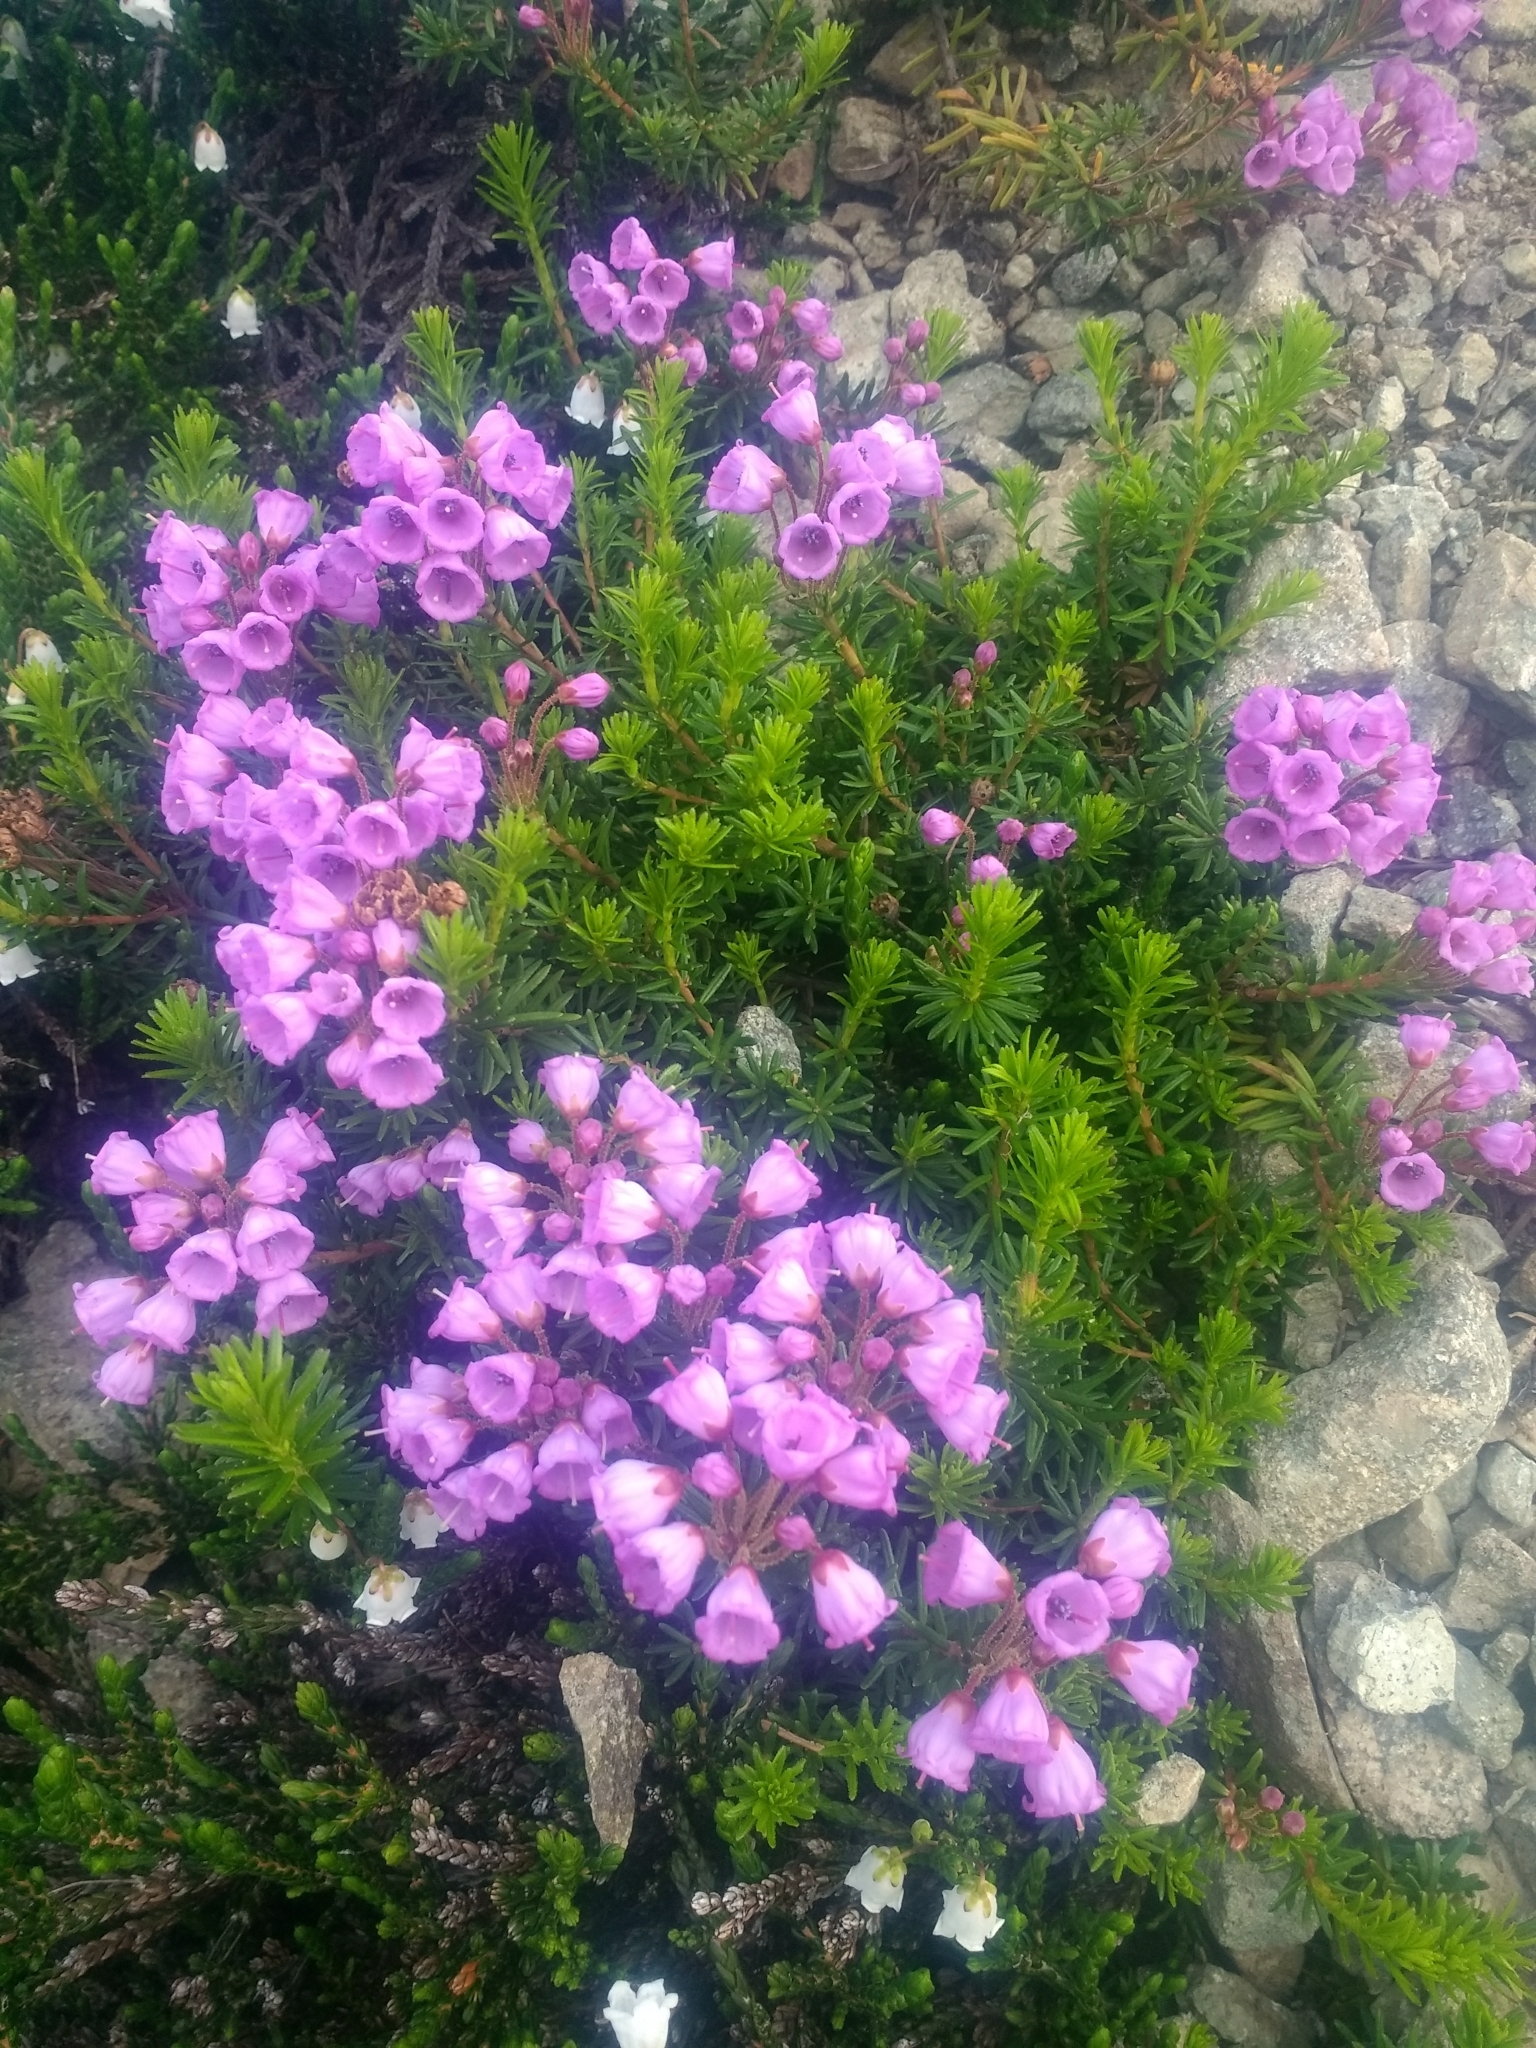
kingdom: Plantae
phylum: Tracheophyta
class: Magnoliopsida
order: Ericales
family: Ericaceae
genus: Phyllodoce
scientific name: Phyllodoce empetriformis
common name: Pink mountain heather
